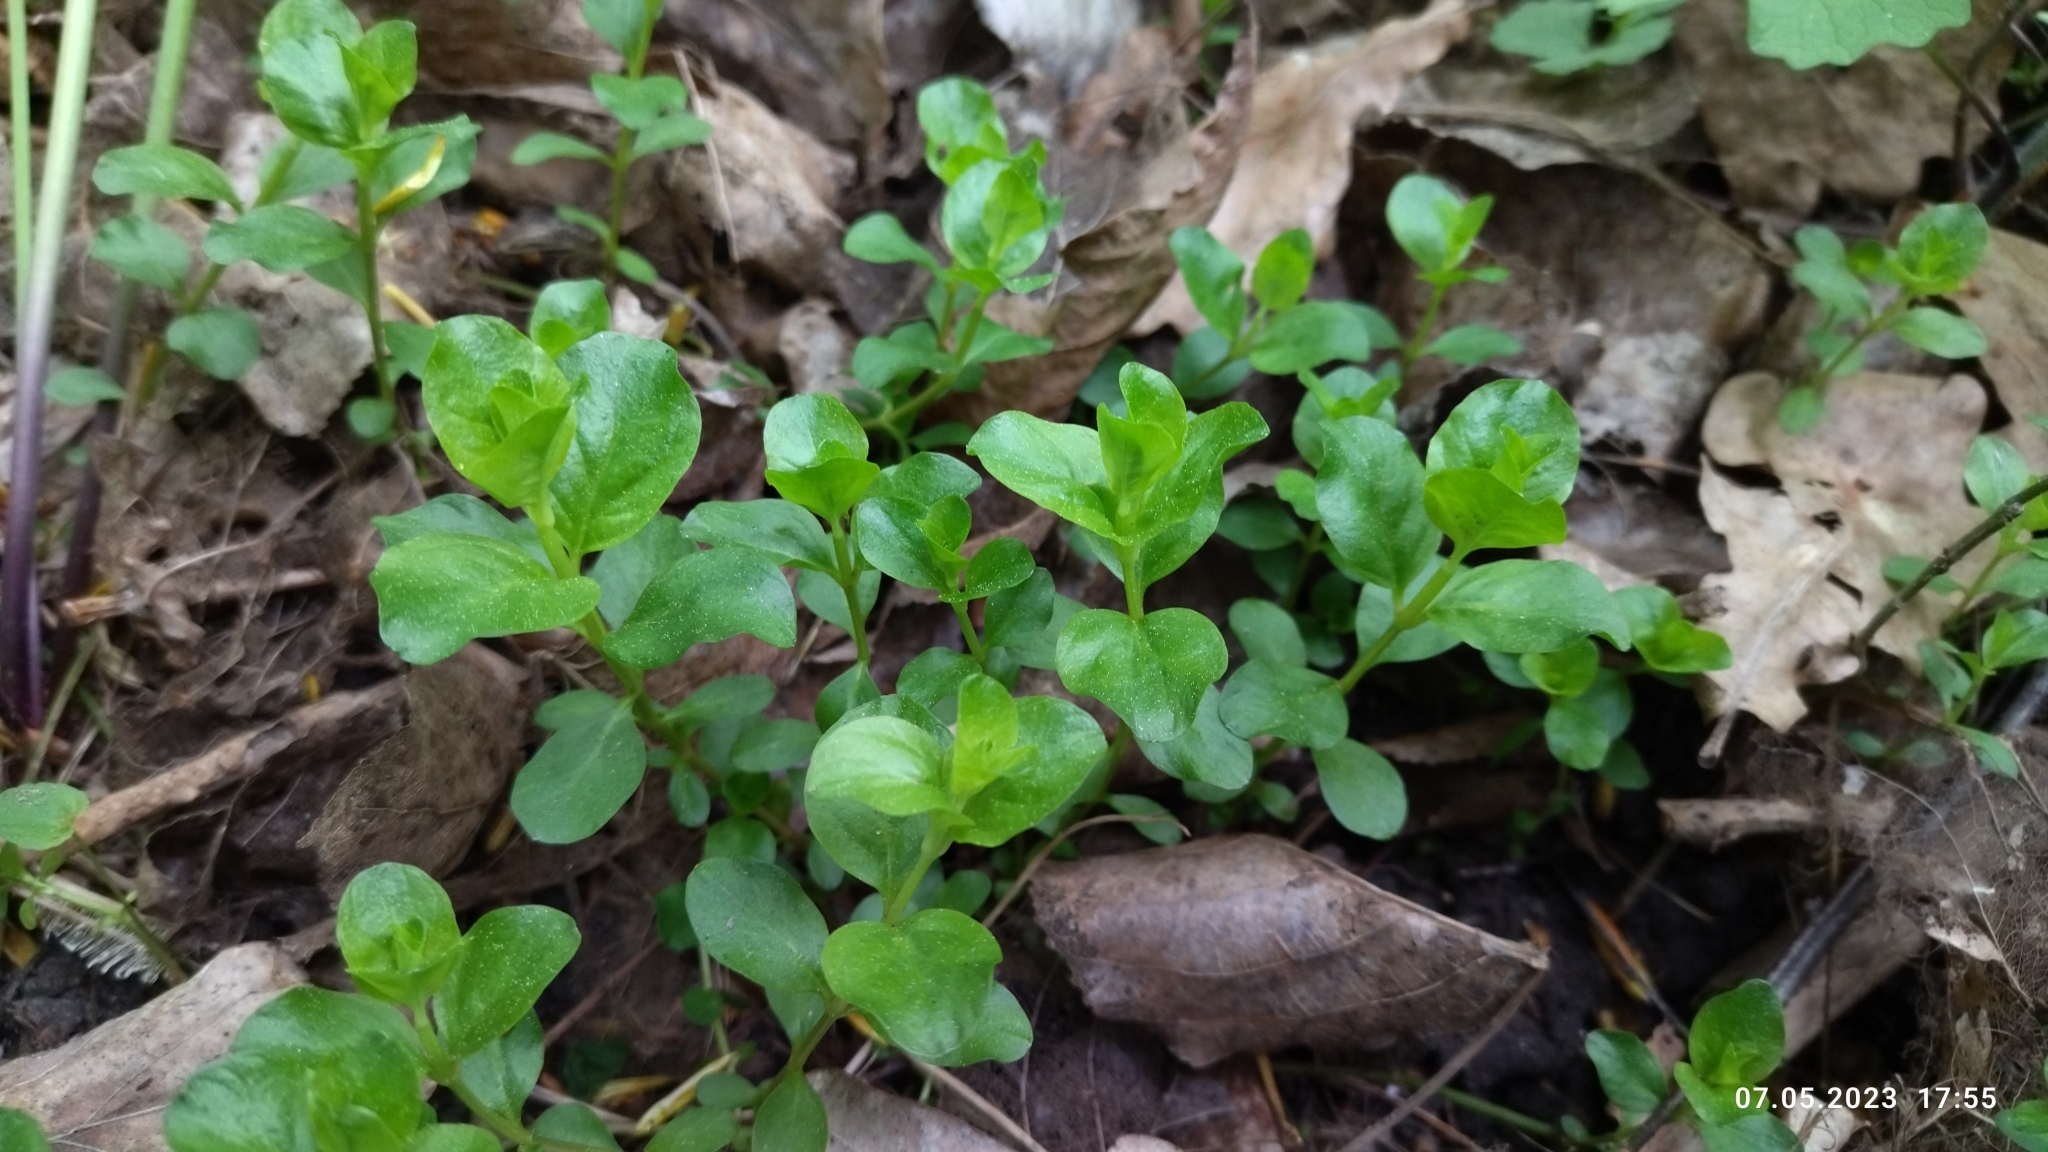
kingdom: Plantae
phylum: Tracheophyta
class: Magnoliopsida
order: Ericales
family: Primulaceae
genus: Lysimachia
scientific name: Lysimachia nummularia
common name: Moneywort
